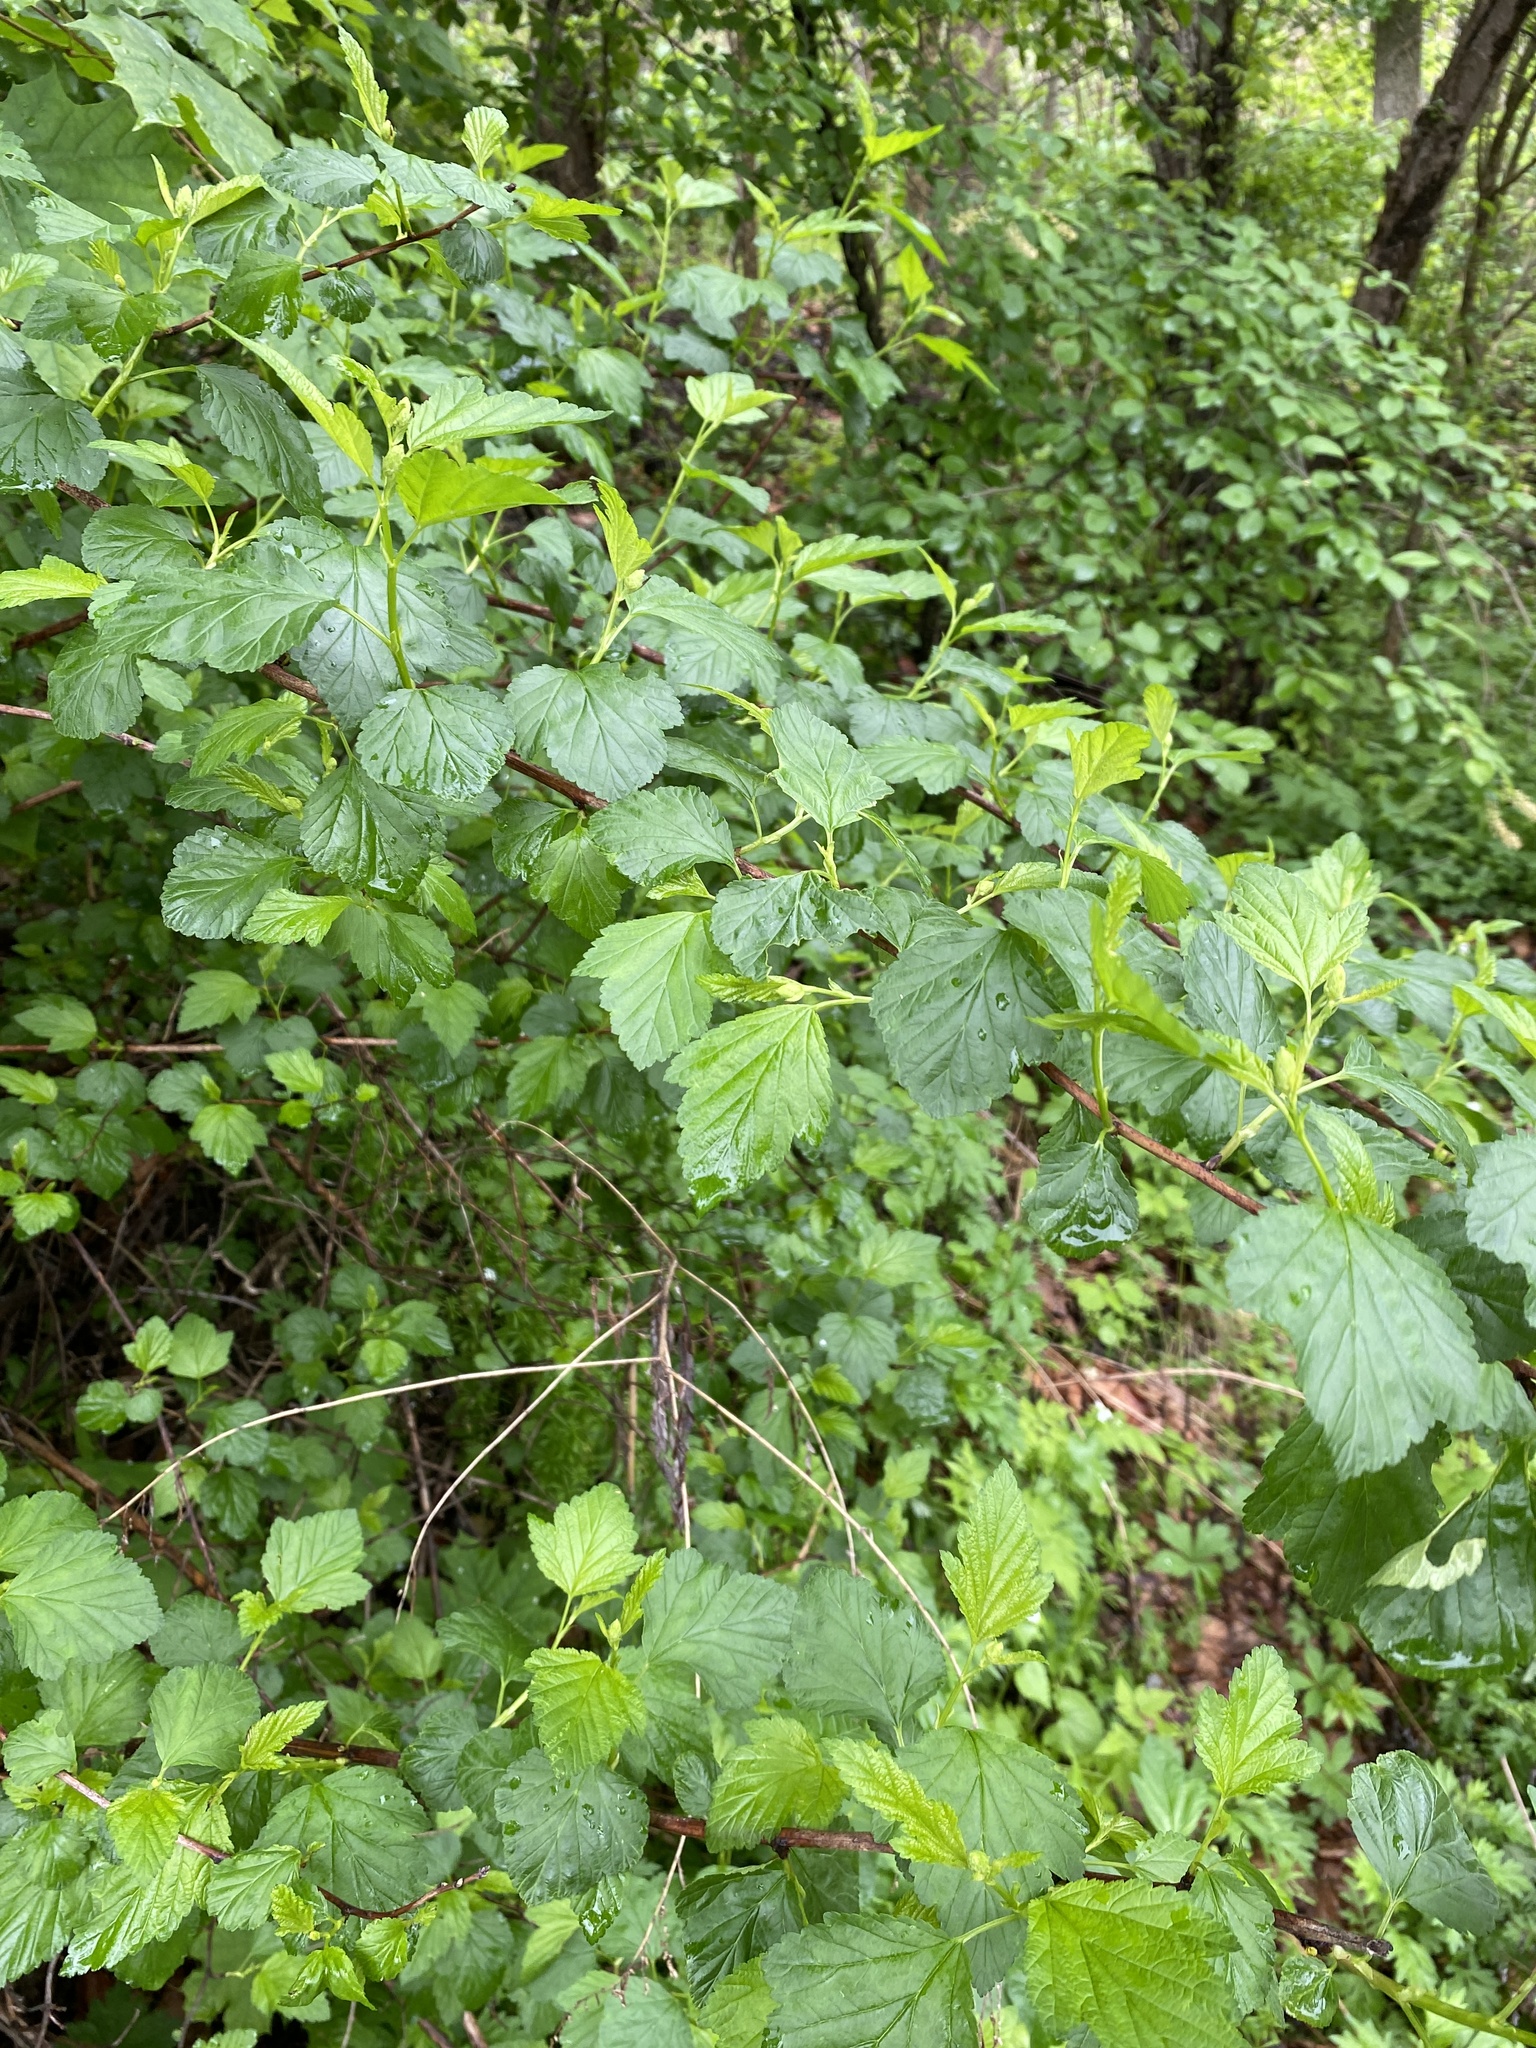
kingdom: Plantae
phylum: Tracheophyta
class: Magnoliopsida
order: Rosales
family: Rosaceae
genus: Physocarpus
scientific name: Physocarpus opulifolius
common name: Ninebark
